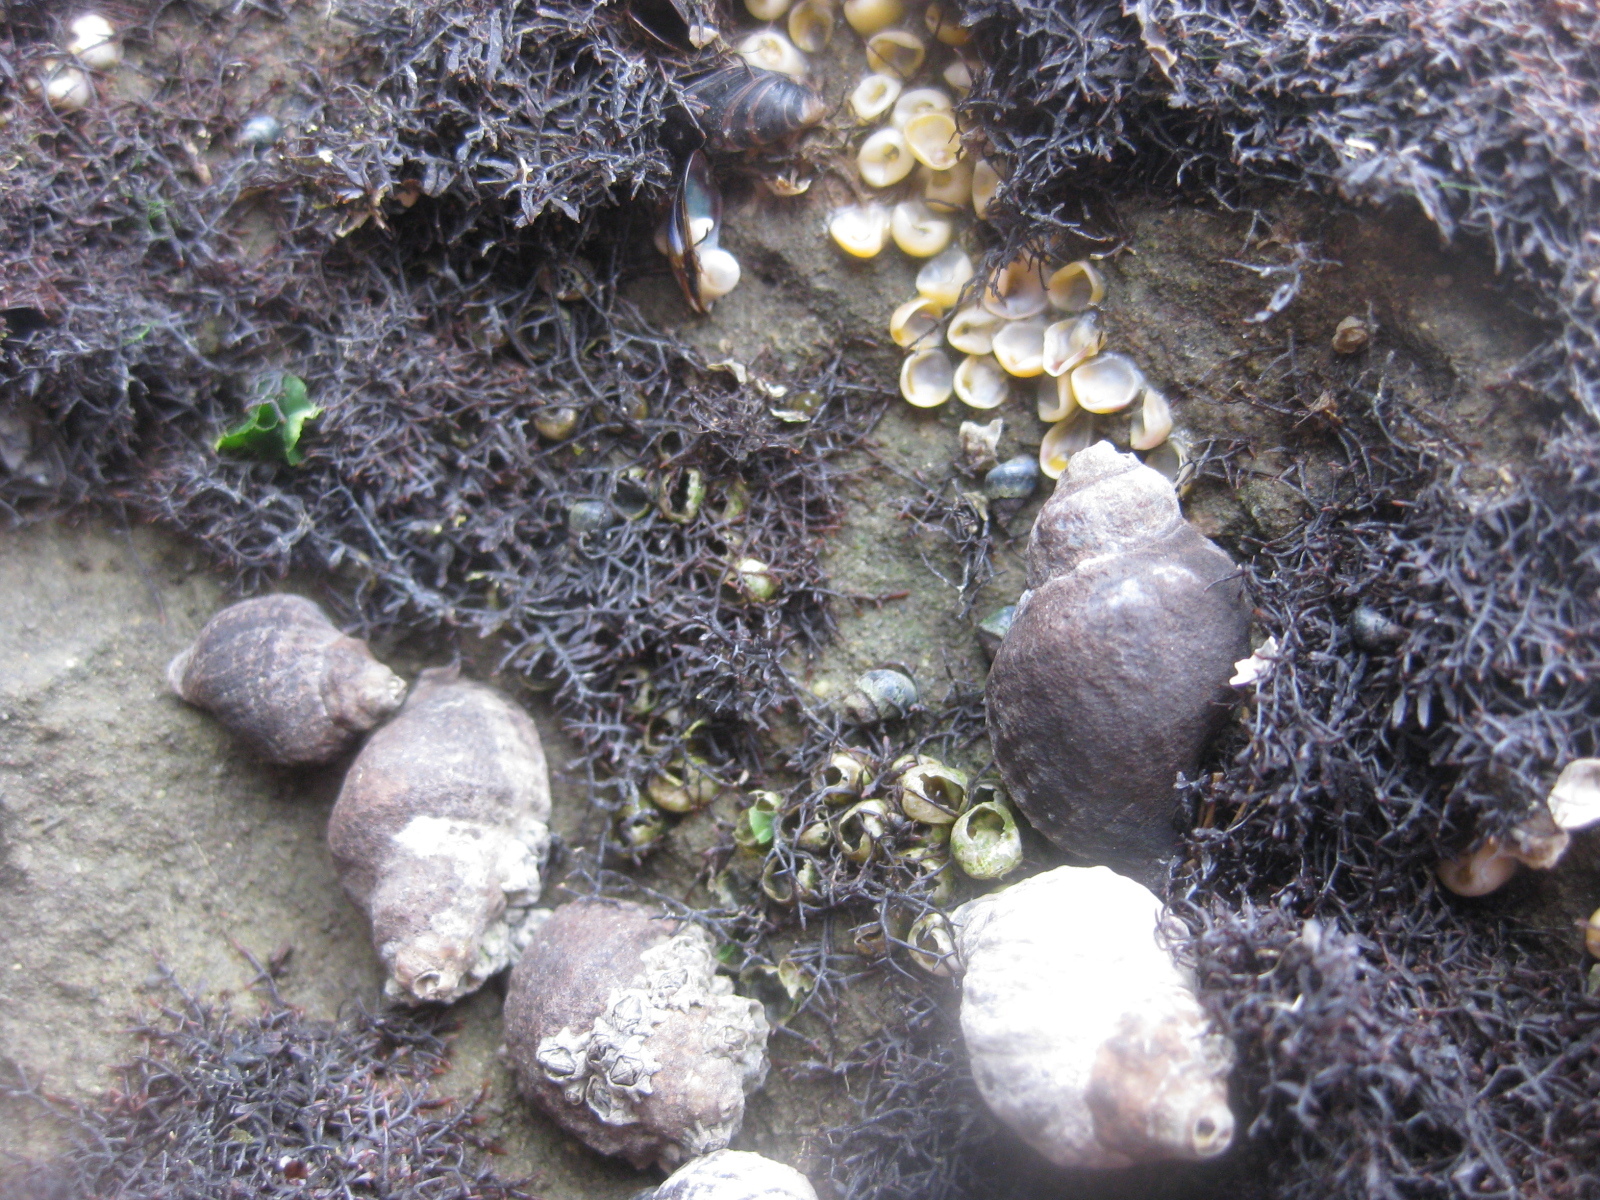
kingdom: Animalia
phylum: Mollusca
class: Gastropoda
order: Neogastropoda
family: Muricidae
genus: Haustrum
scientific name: Haustrum albomarginatum
